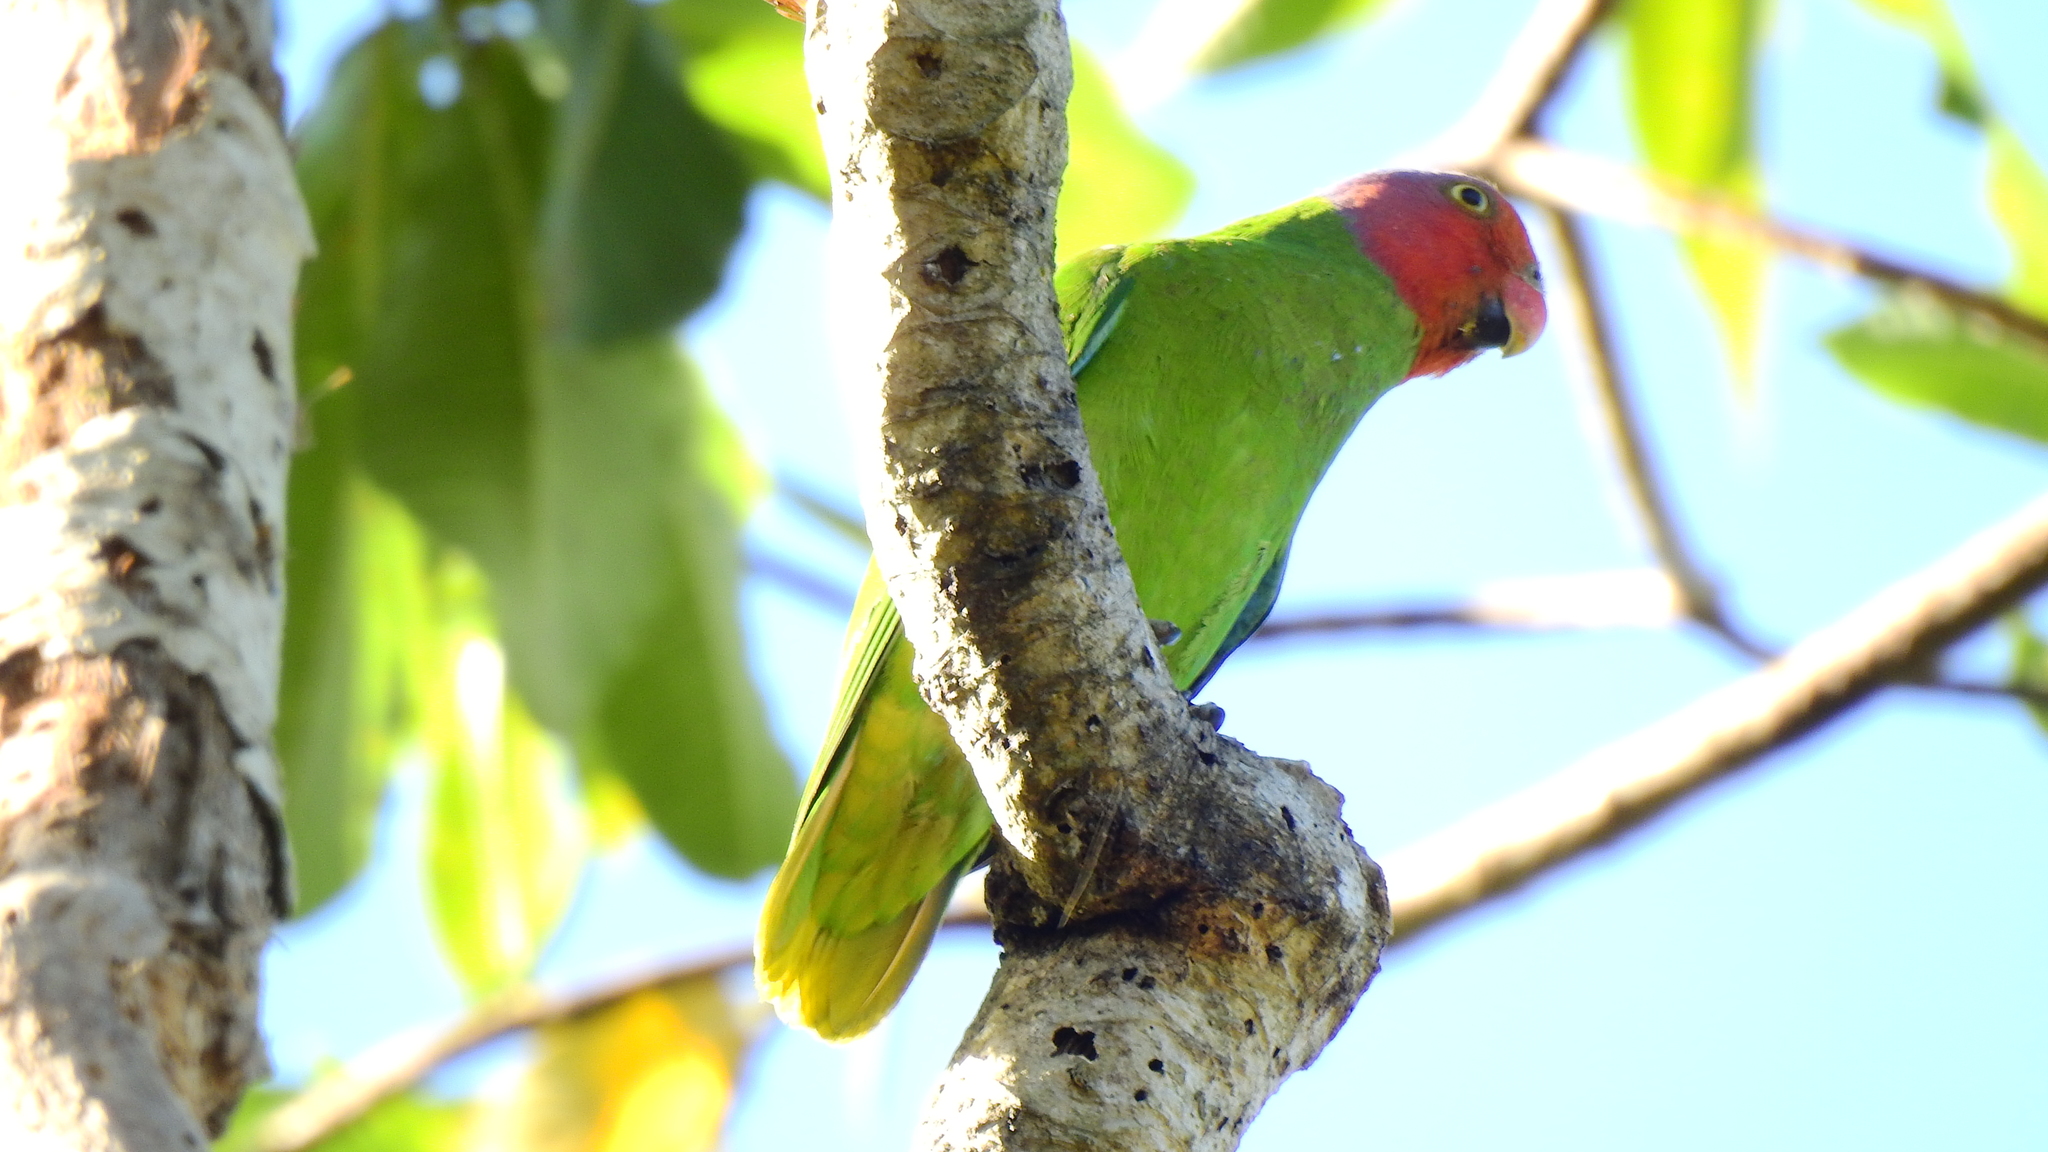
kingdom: Animalia
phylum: Chordata
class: Aves
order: Psittaciformes
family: Psittacidae
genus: Geoffroyus
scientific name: Geoffroyus geoffroyi
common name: Red-cheeked parrot
